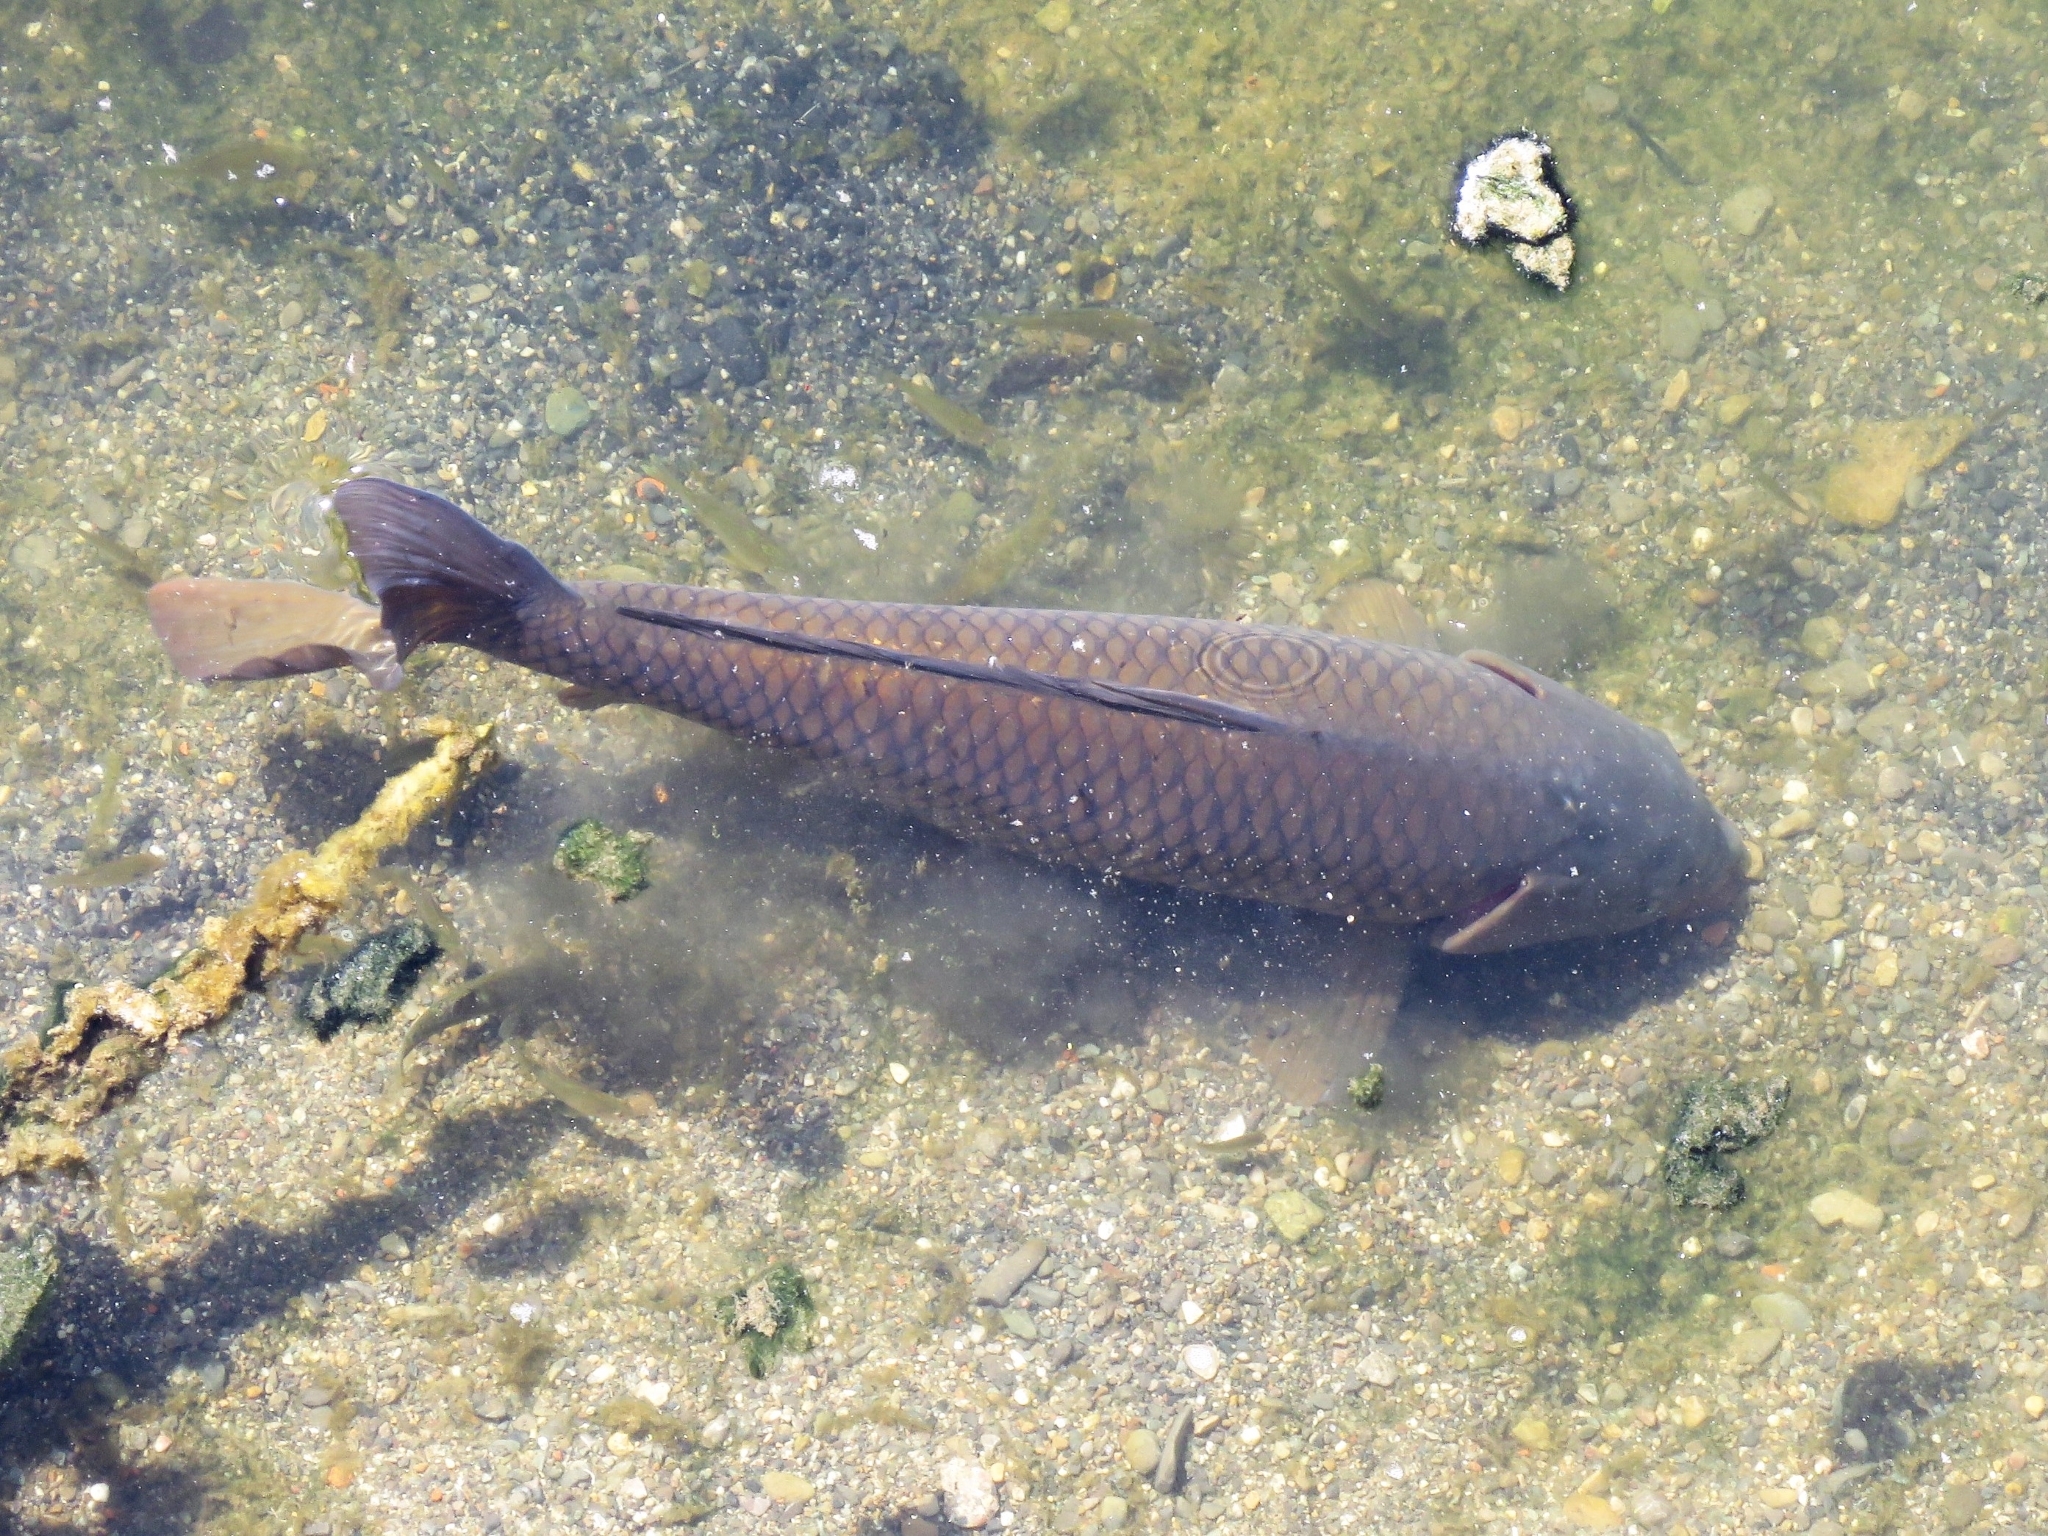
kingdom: Animalia
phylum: Chordata
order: Cypriniformes
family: Cyprinidae
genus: Cyprinus
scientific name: Cyprinus carpio
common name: Common carp
